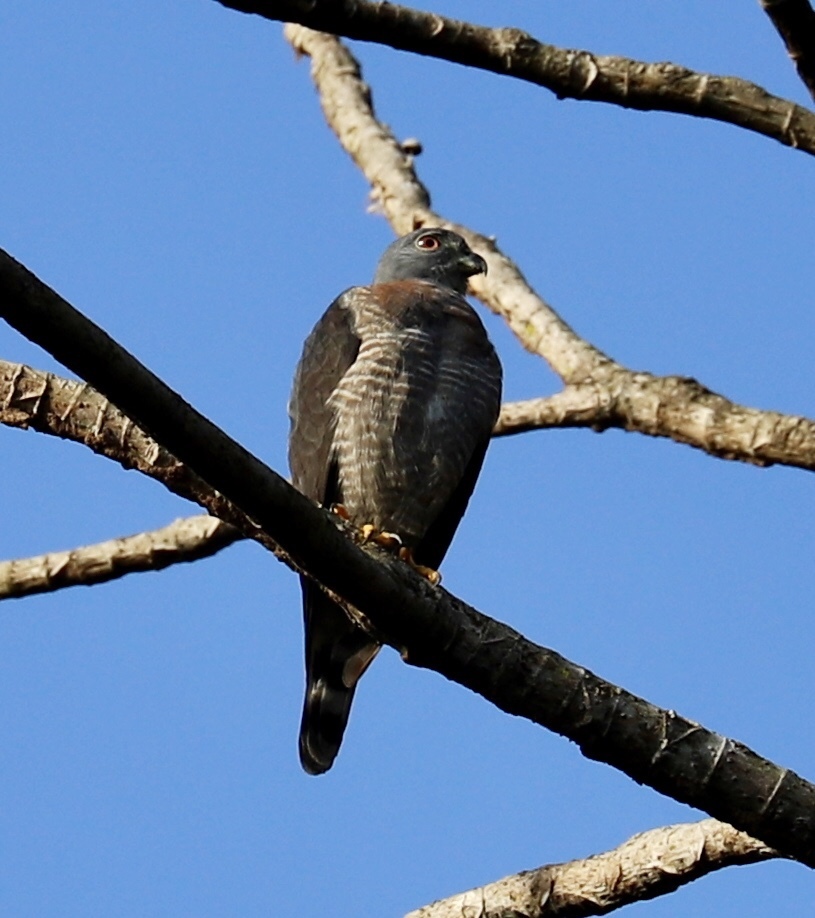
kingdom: Animalia
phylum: Chordata
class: Aves
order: Accipitriformes
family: Accipitridae
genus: Harpagus
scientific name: Harpagus bidentatus
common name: Double-toothed kite
